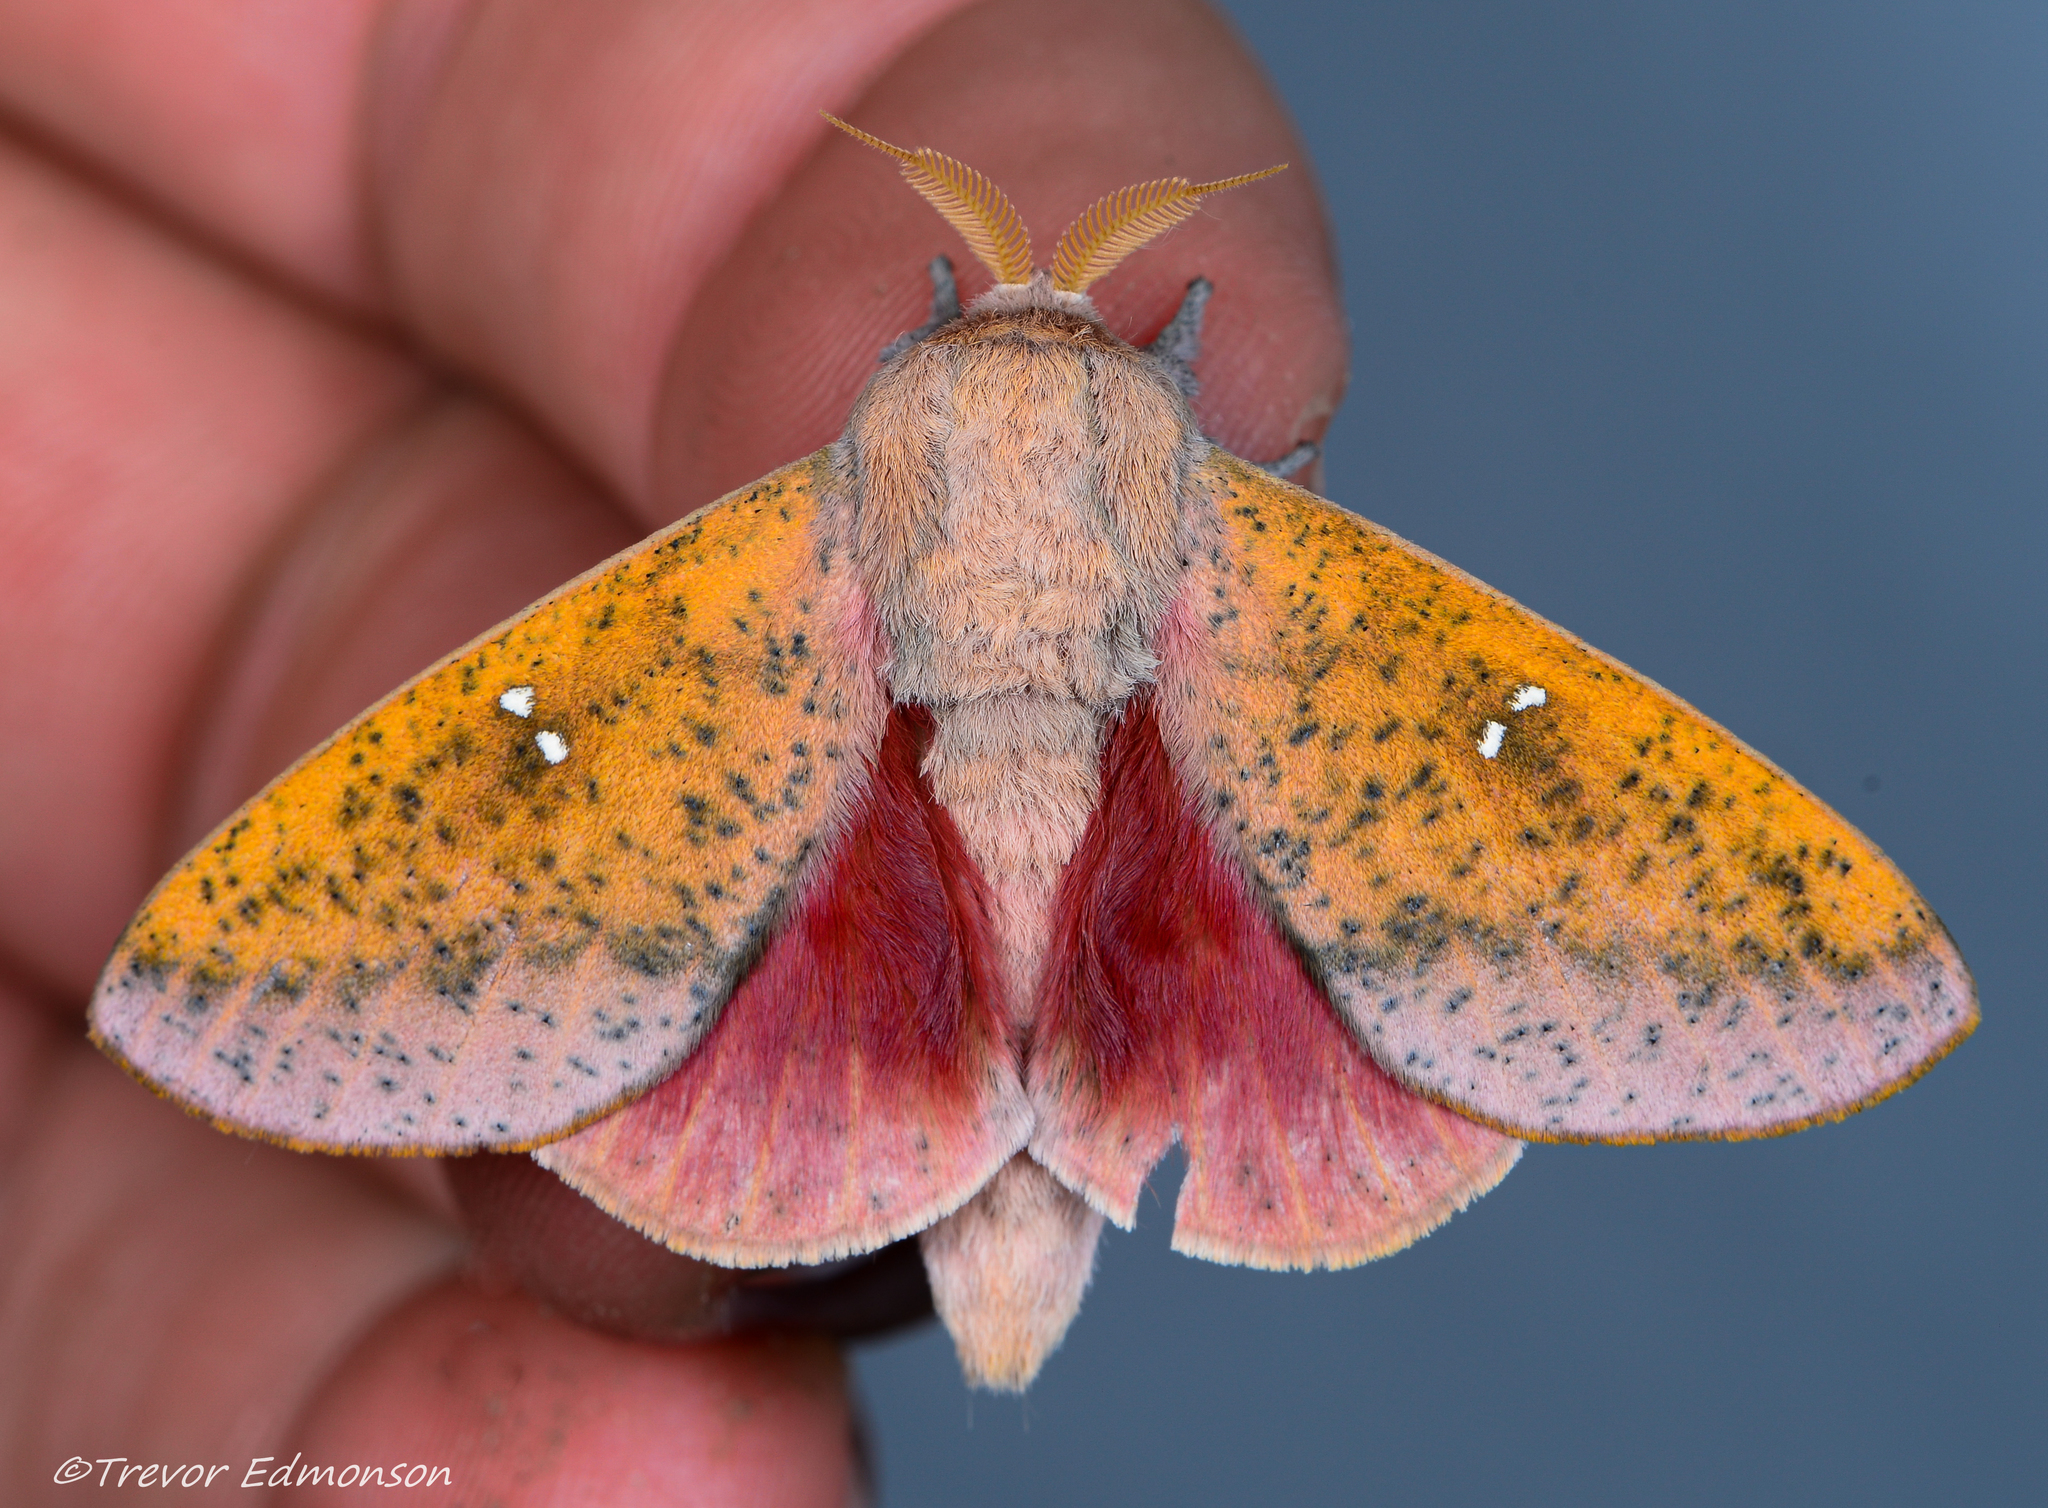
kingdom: Animalia
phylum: Arthropoda
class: Insecta
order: Lepidoptera
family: Saturniidae
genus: Syssphinx
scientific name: Syssphinx bicolor
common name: Honey locust moth
